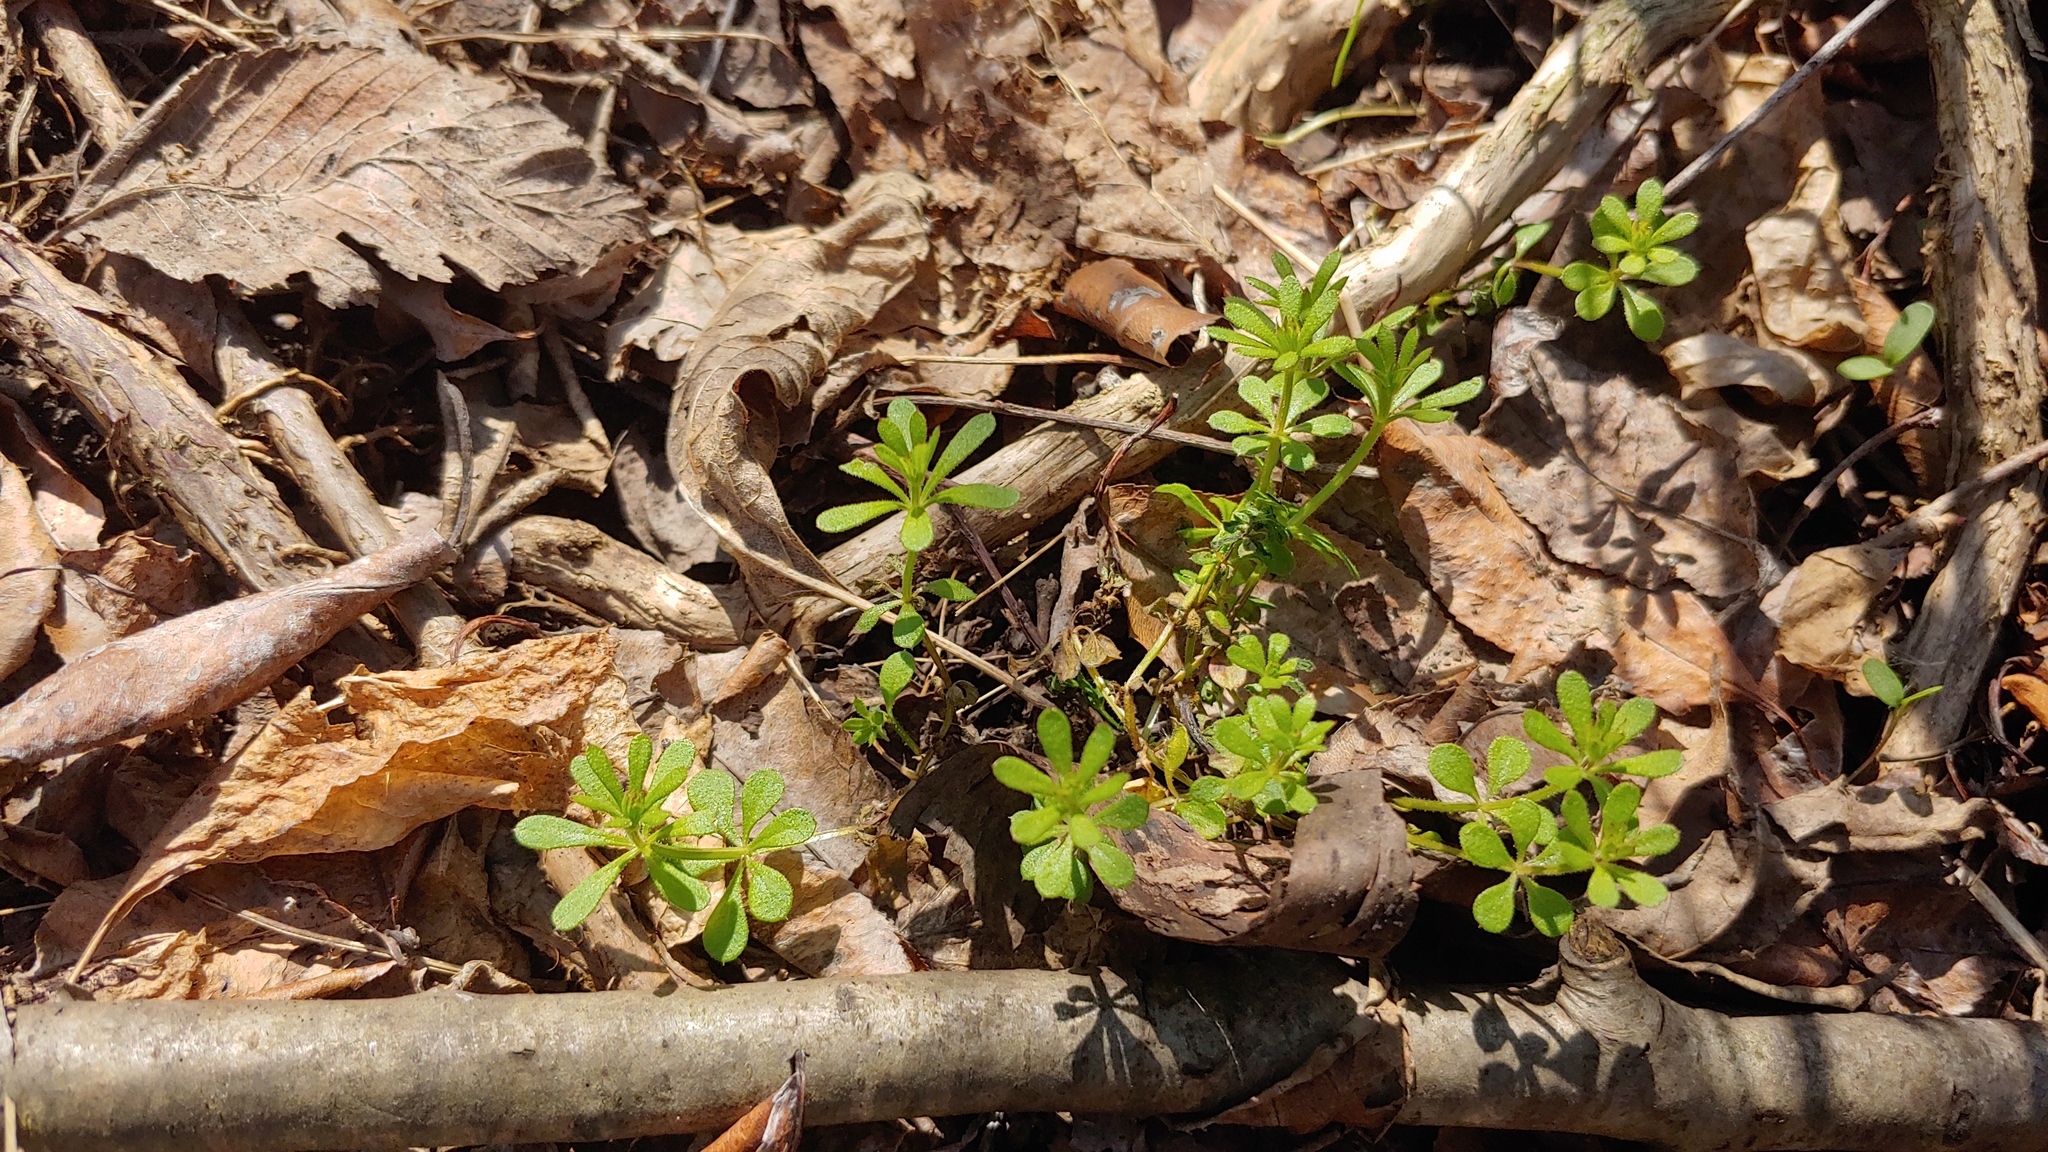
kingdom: Plantae
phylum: Tracheophyta
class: Magnoliopsida
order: Gentianales
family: Rubiaceae
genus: Galium
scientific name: Galium aparine
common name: Cleavers
